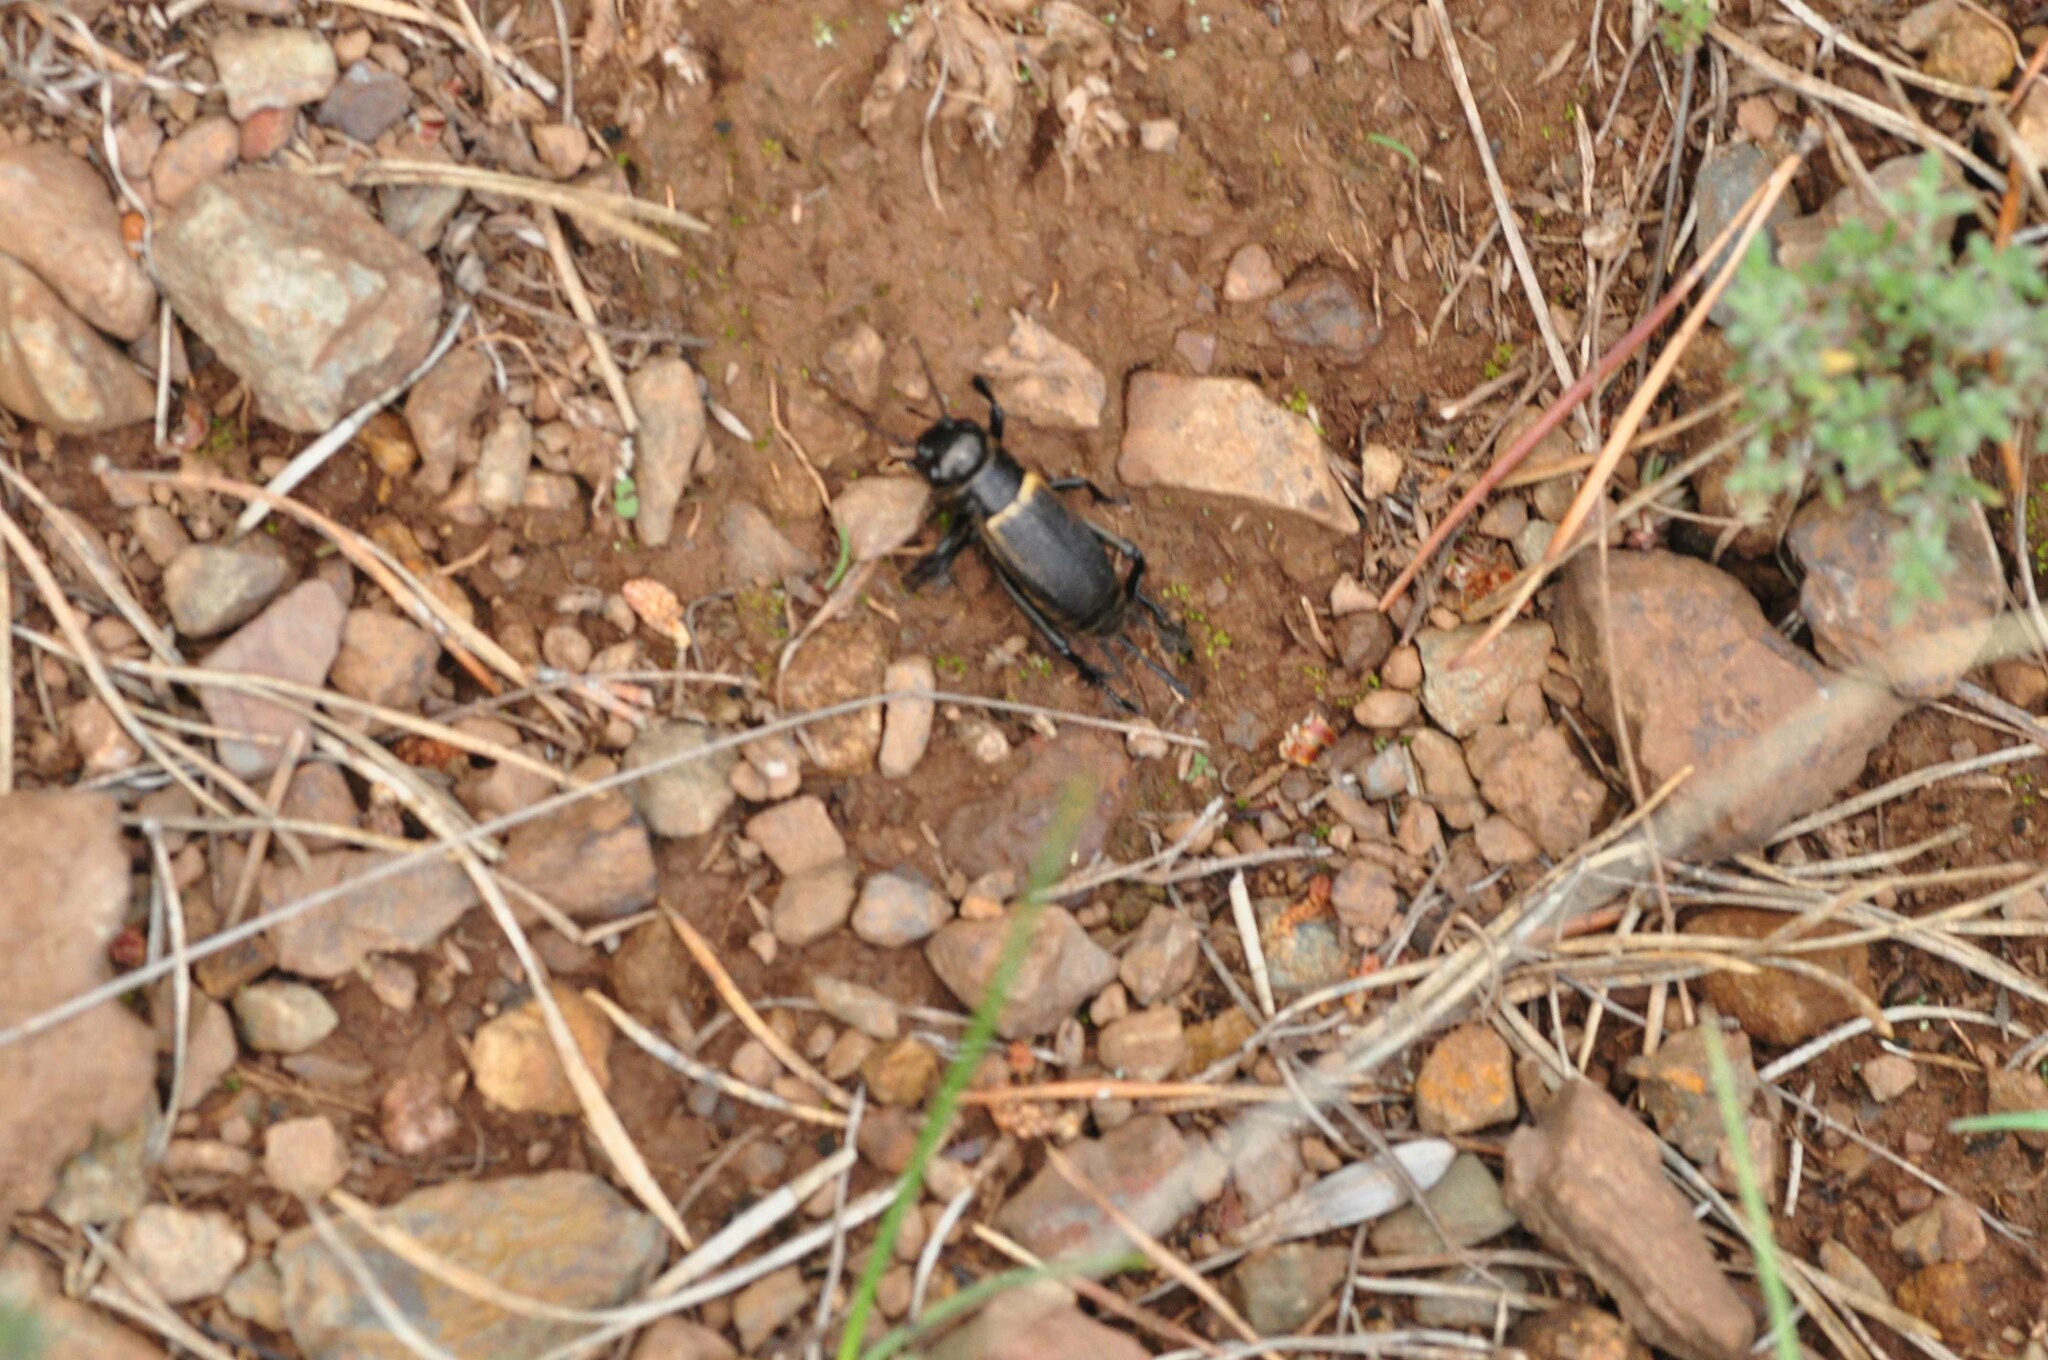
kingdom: Animalia
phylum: Arthropoda
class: Insecta
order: Orthoptera
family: Gryllidae
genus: Gryllus
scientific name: Gryllus campestris
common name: Field cricket
